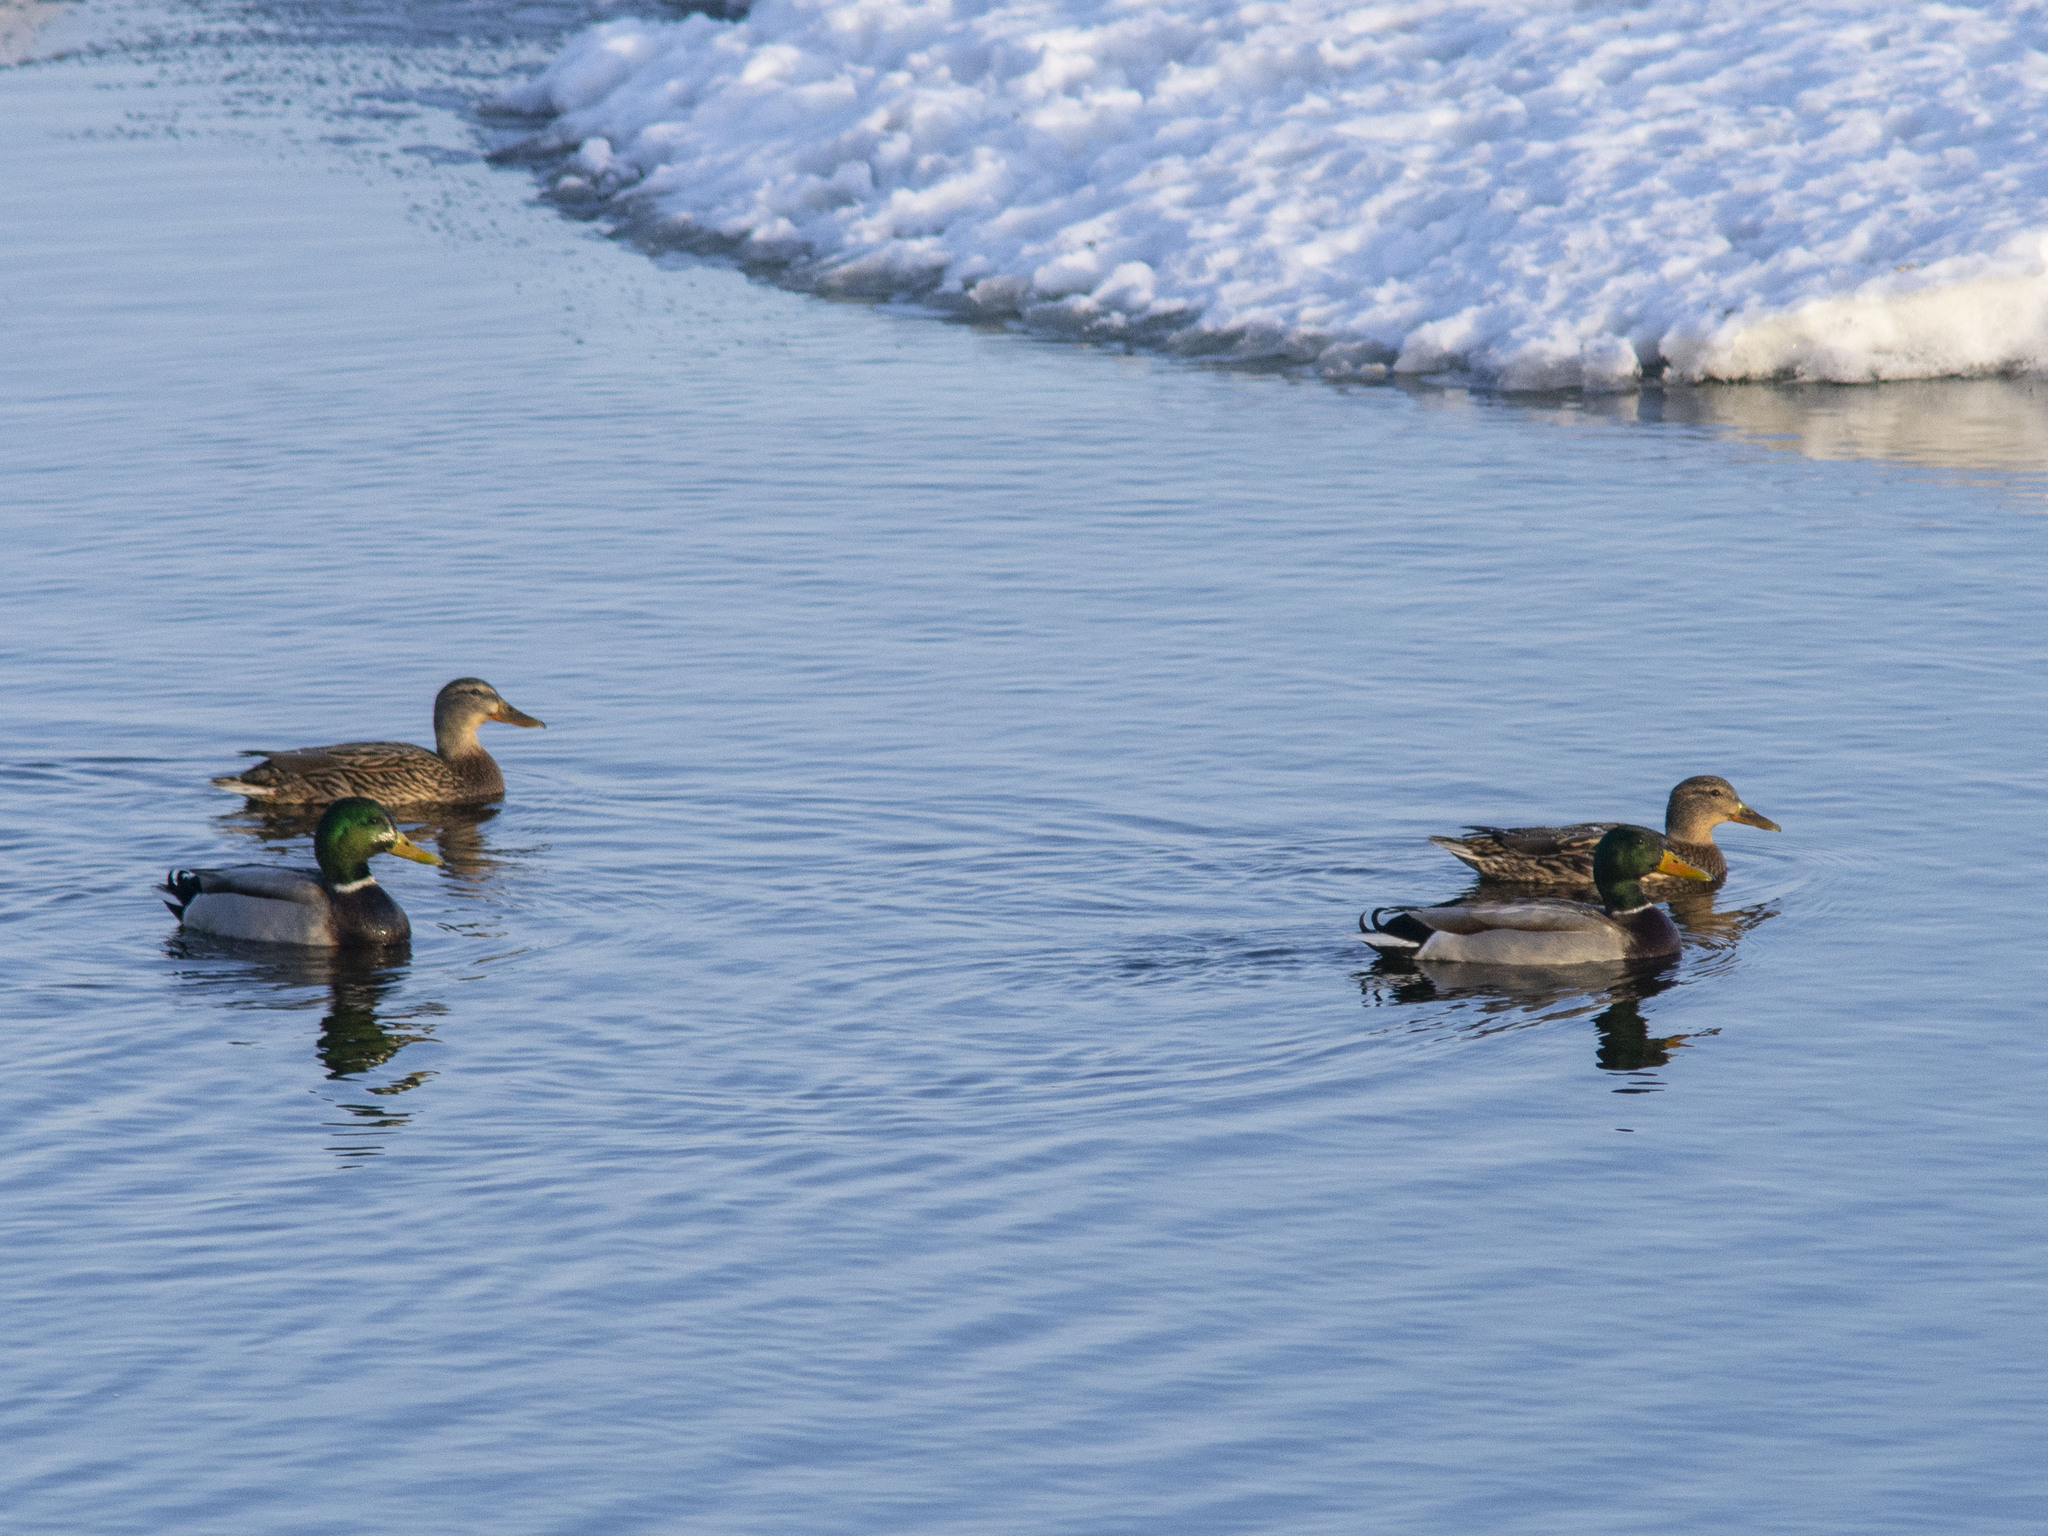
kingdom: Animalia
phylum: Chordata
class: Aves
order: Anseriformes
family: Anatidae
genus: Anas
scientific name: Anas platyrhynchos
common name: Mallard
